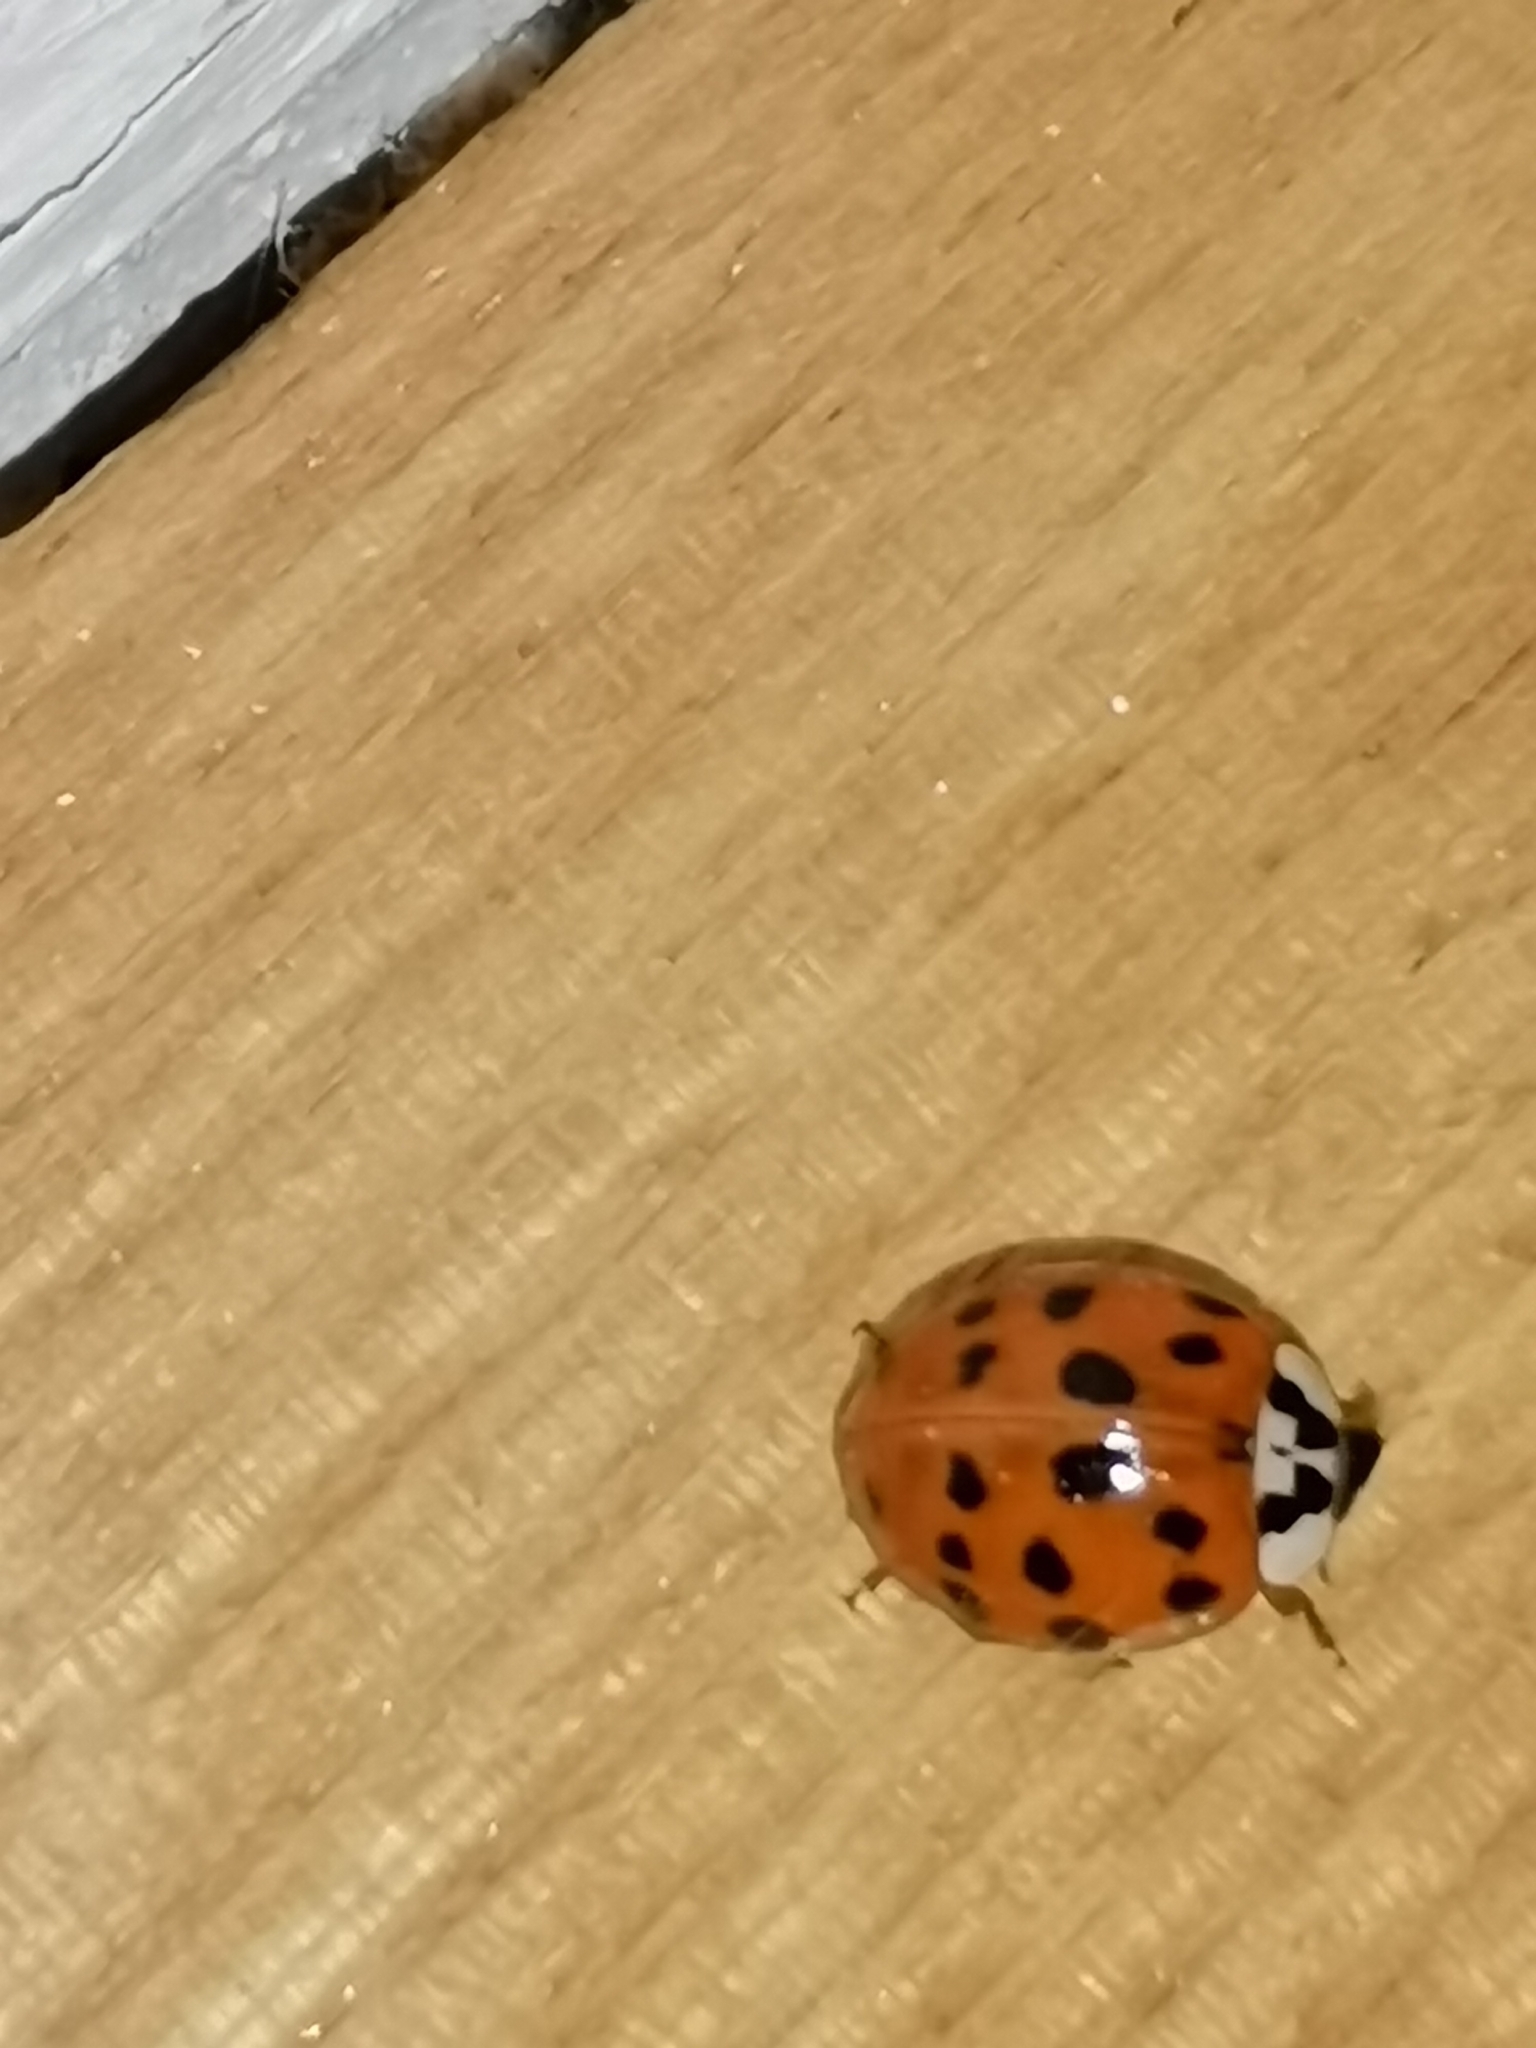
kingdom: Animalia
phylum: Arthropoda
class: Insecta
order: Coleoptera
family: Coccinellidae
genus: Harmonia
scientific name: Harmonia axyridis
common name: Harlequin ladybird
